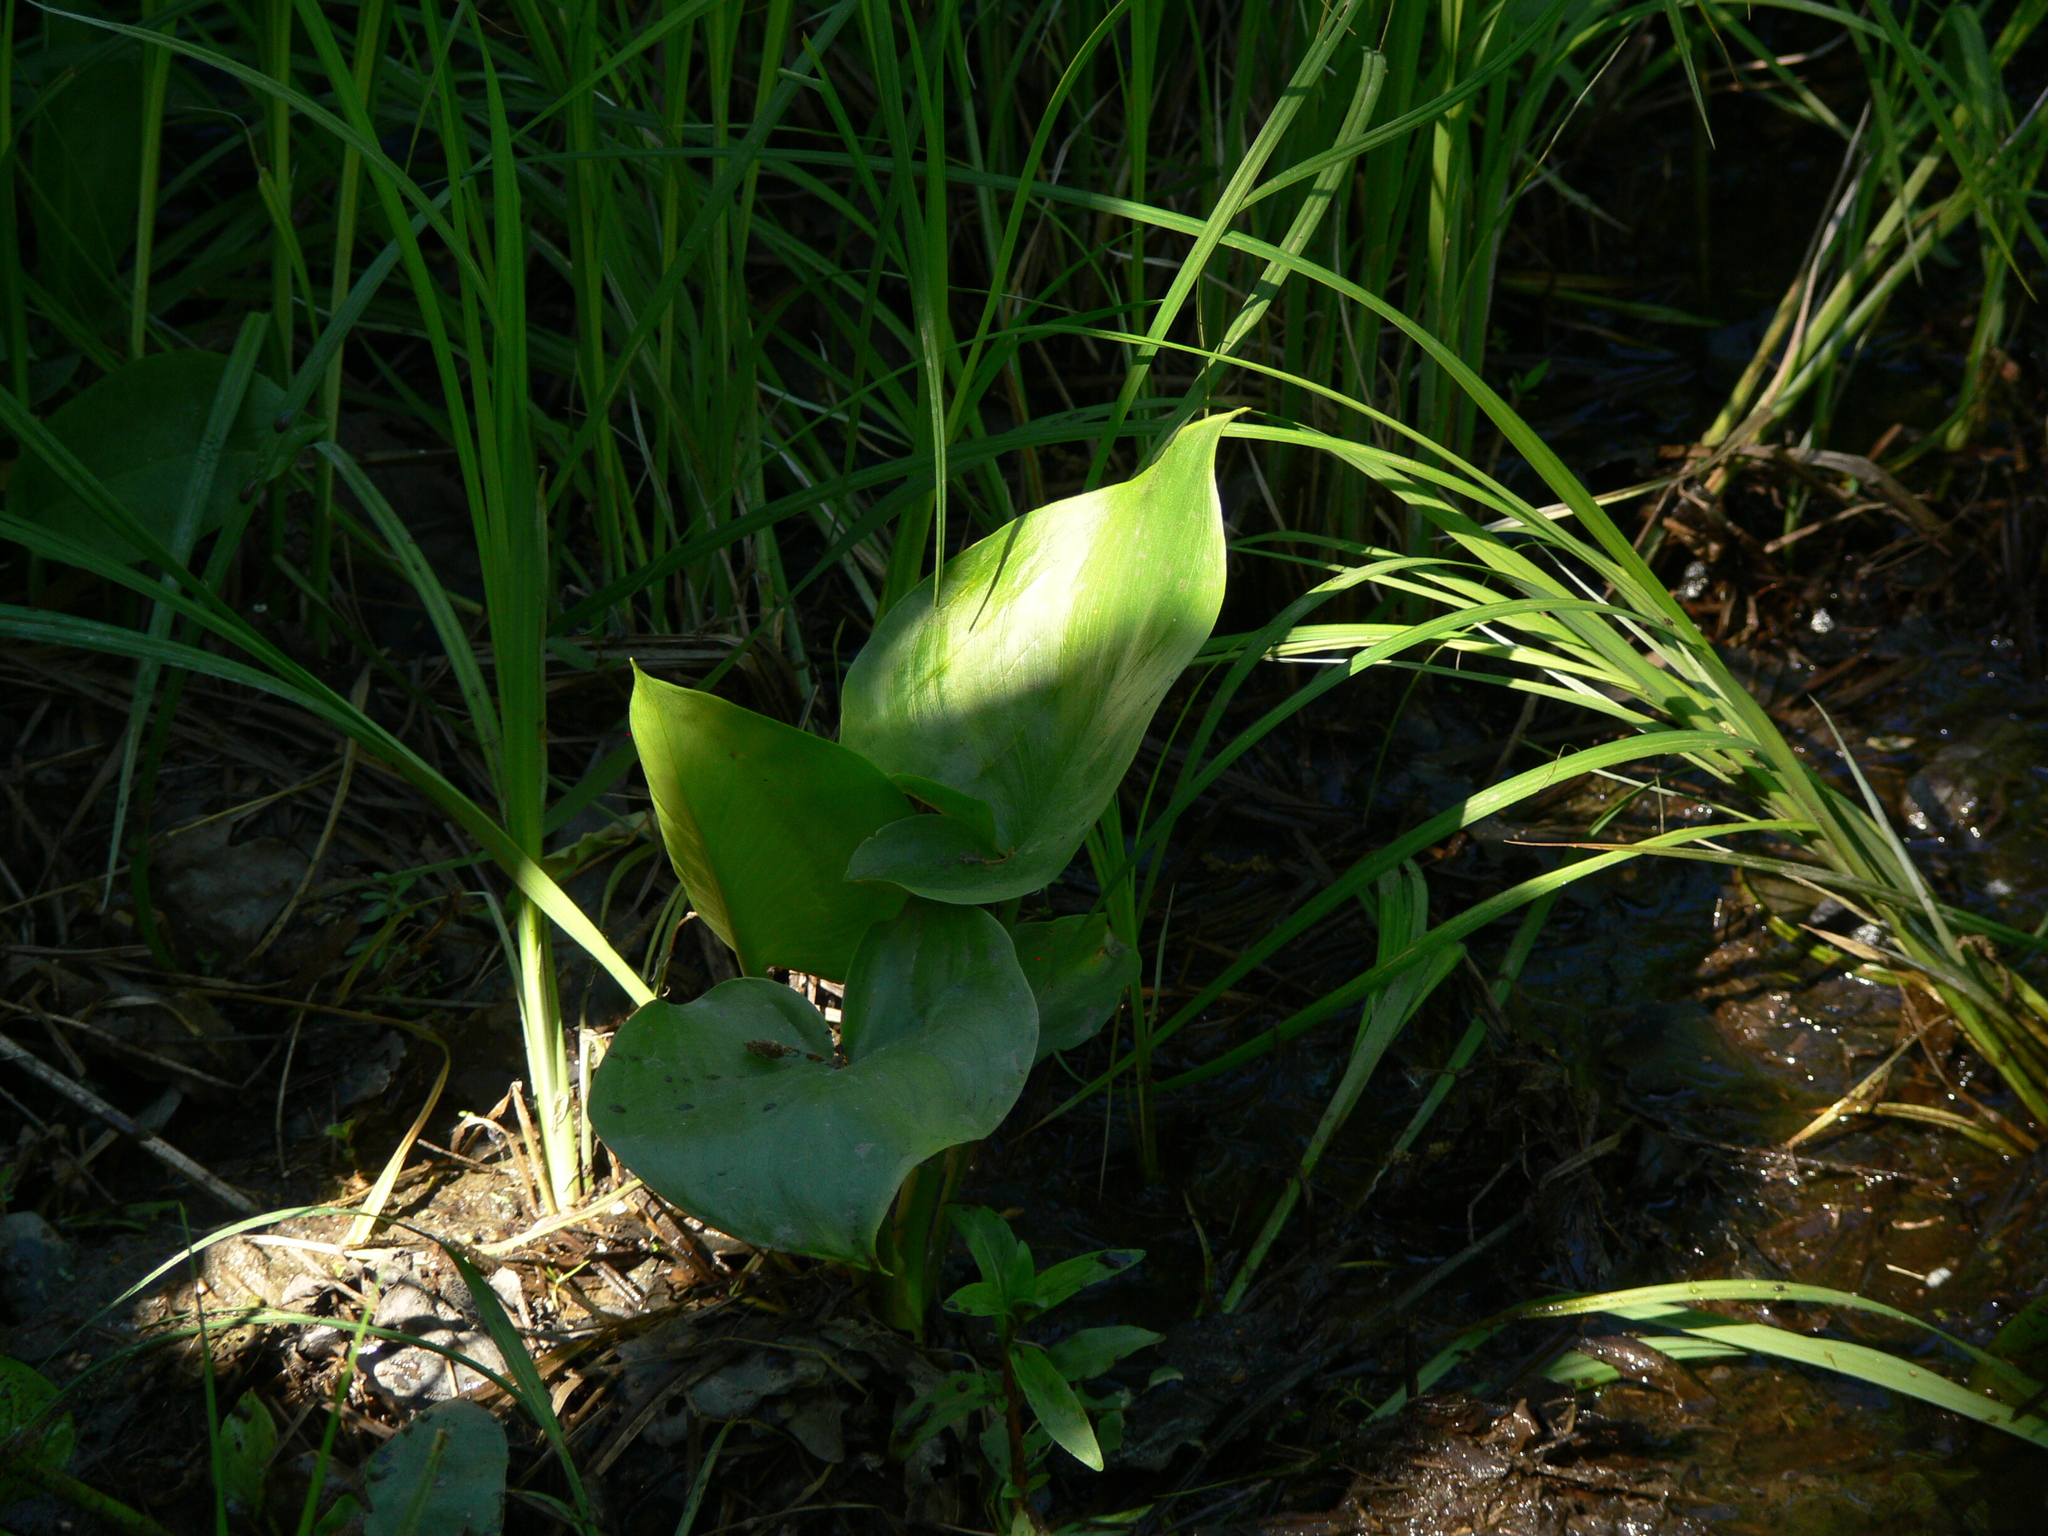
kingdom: Plantae
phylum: Tracheophyta
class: Liliopsida
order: Alismatales
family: Araceae
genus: Calla
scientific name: Calla palustris
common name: Bog arum
